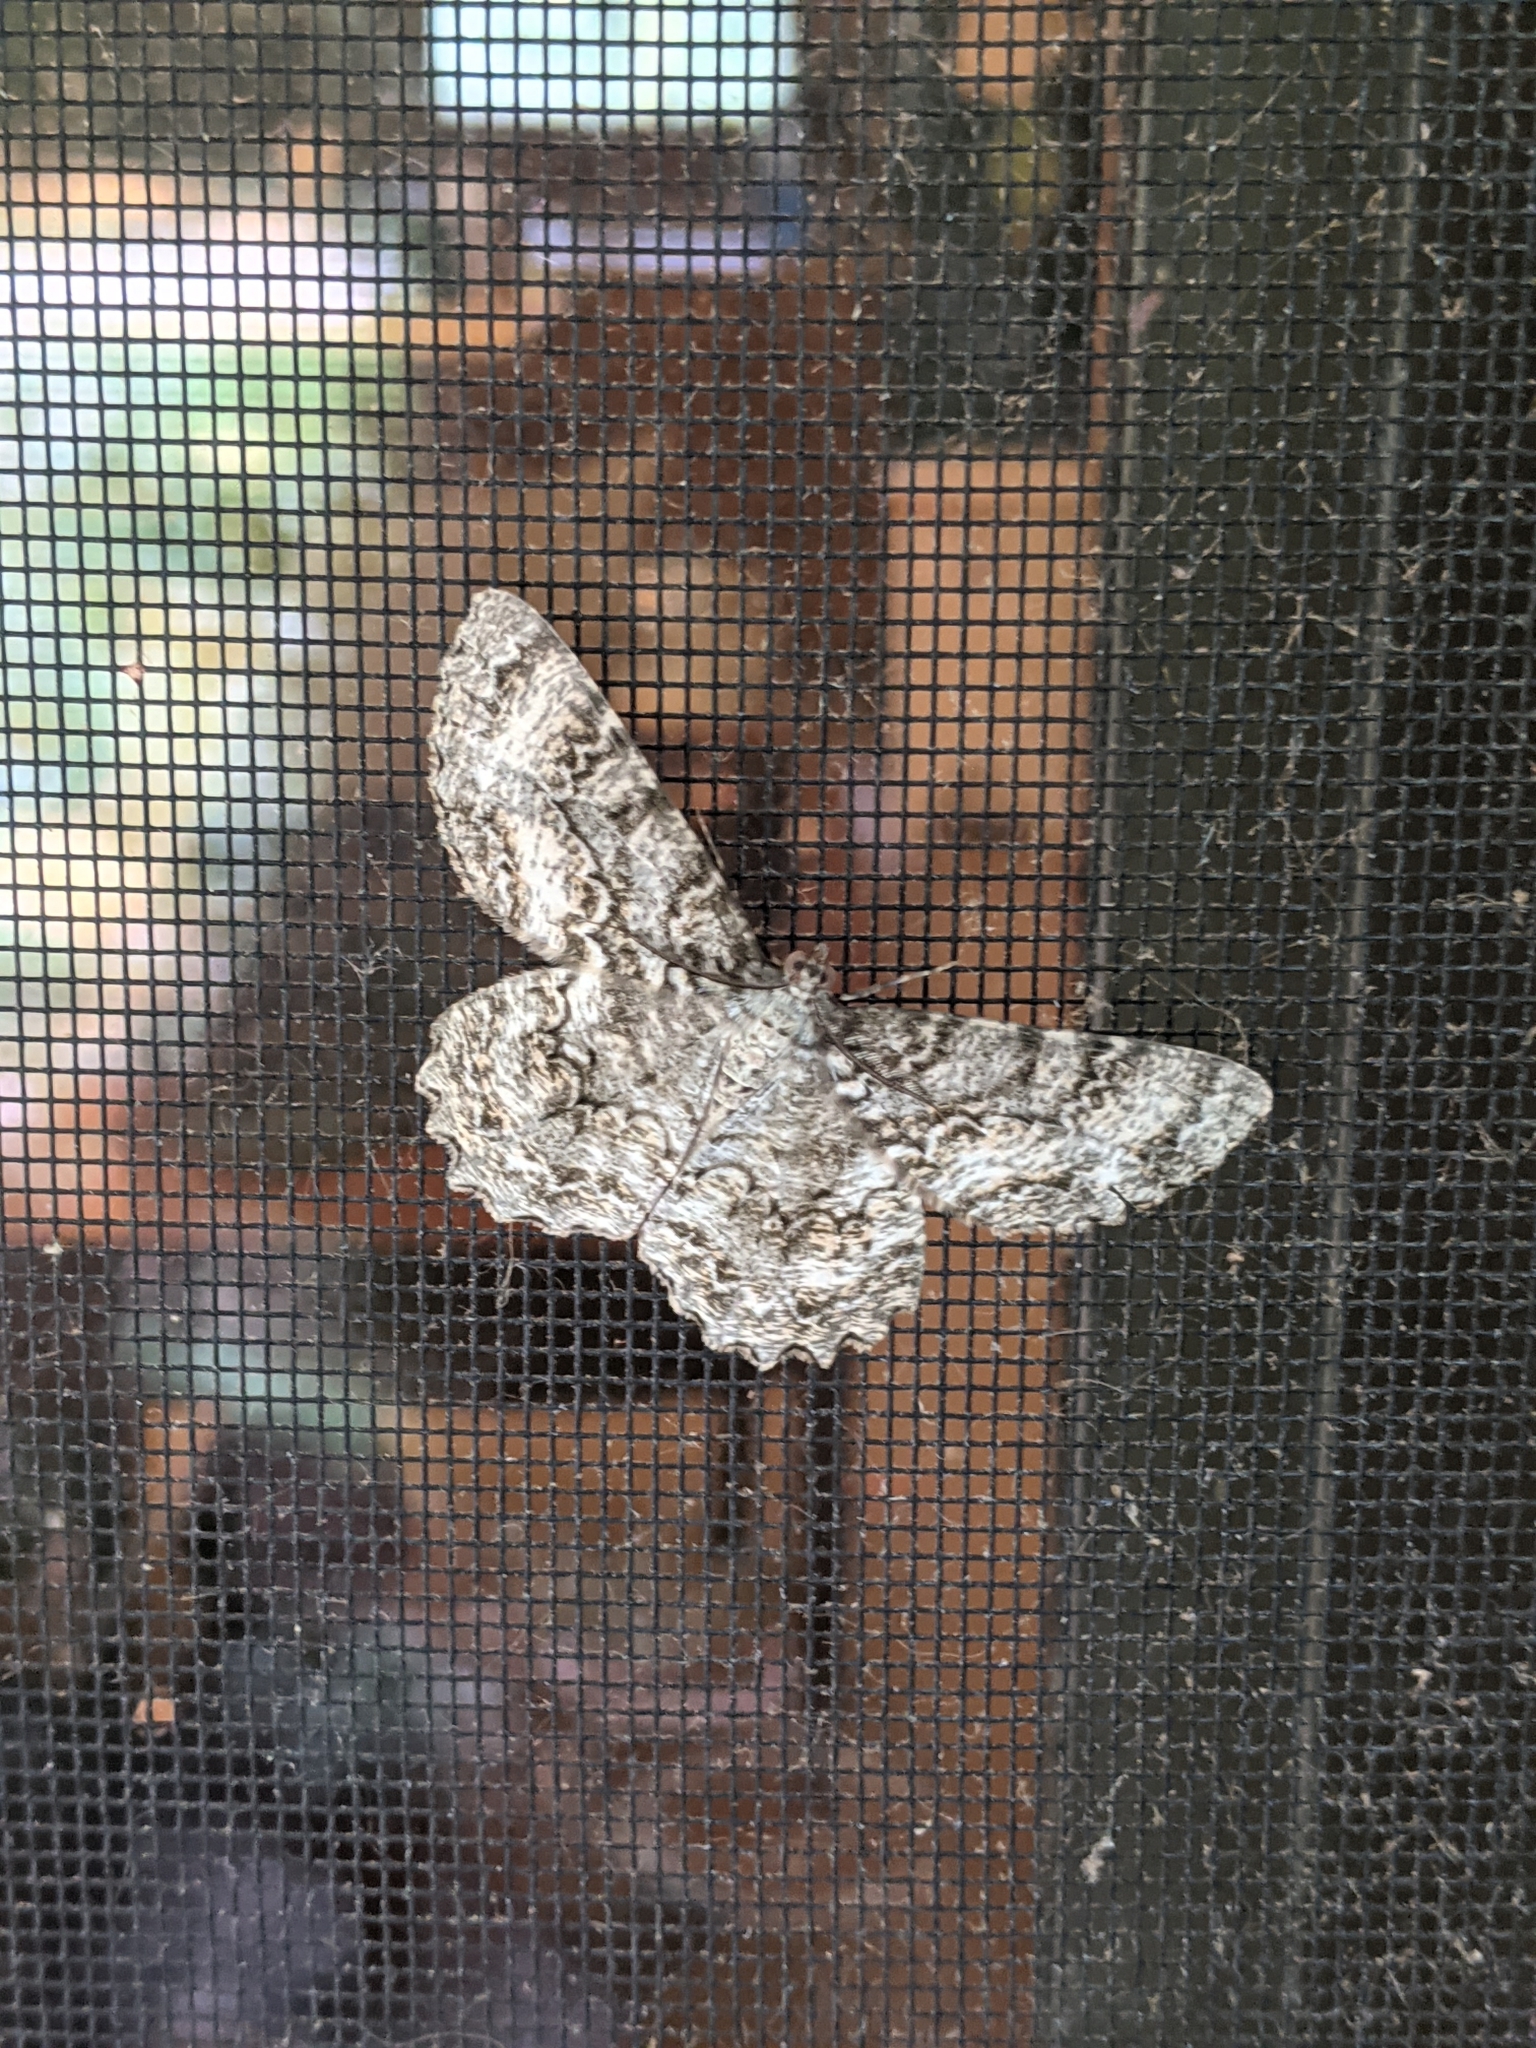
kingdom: Animalia
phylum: Arthropoda
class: Insecta
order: Lepidoptera
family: Geometridae
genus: Epimecis
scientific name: Epimecis hortaria
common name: Tulip-tree beauty
